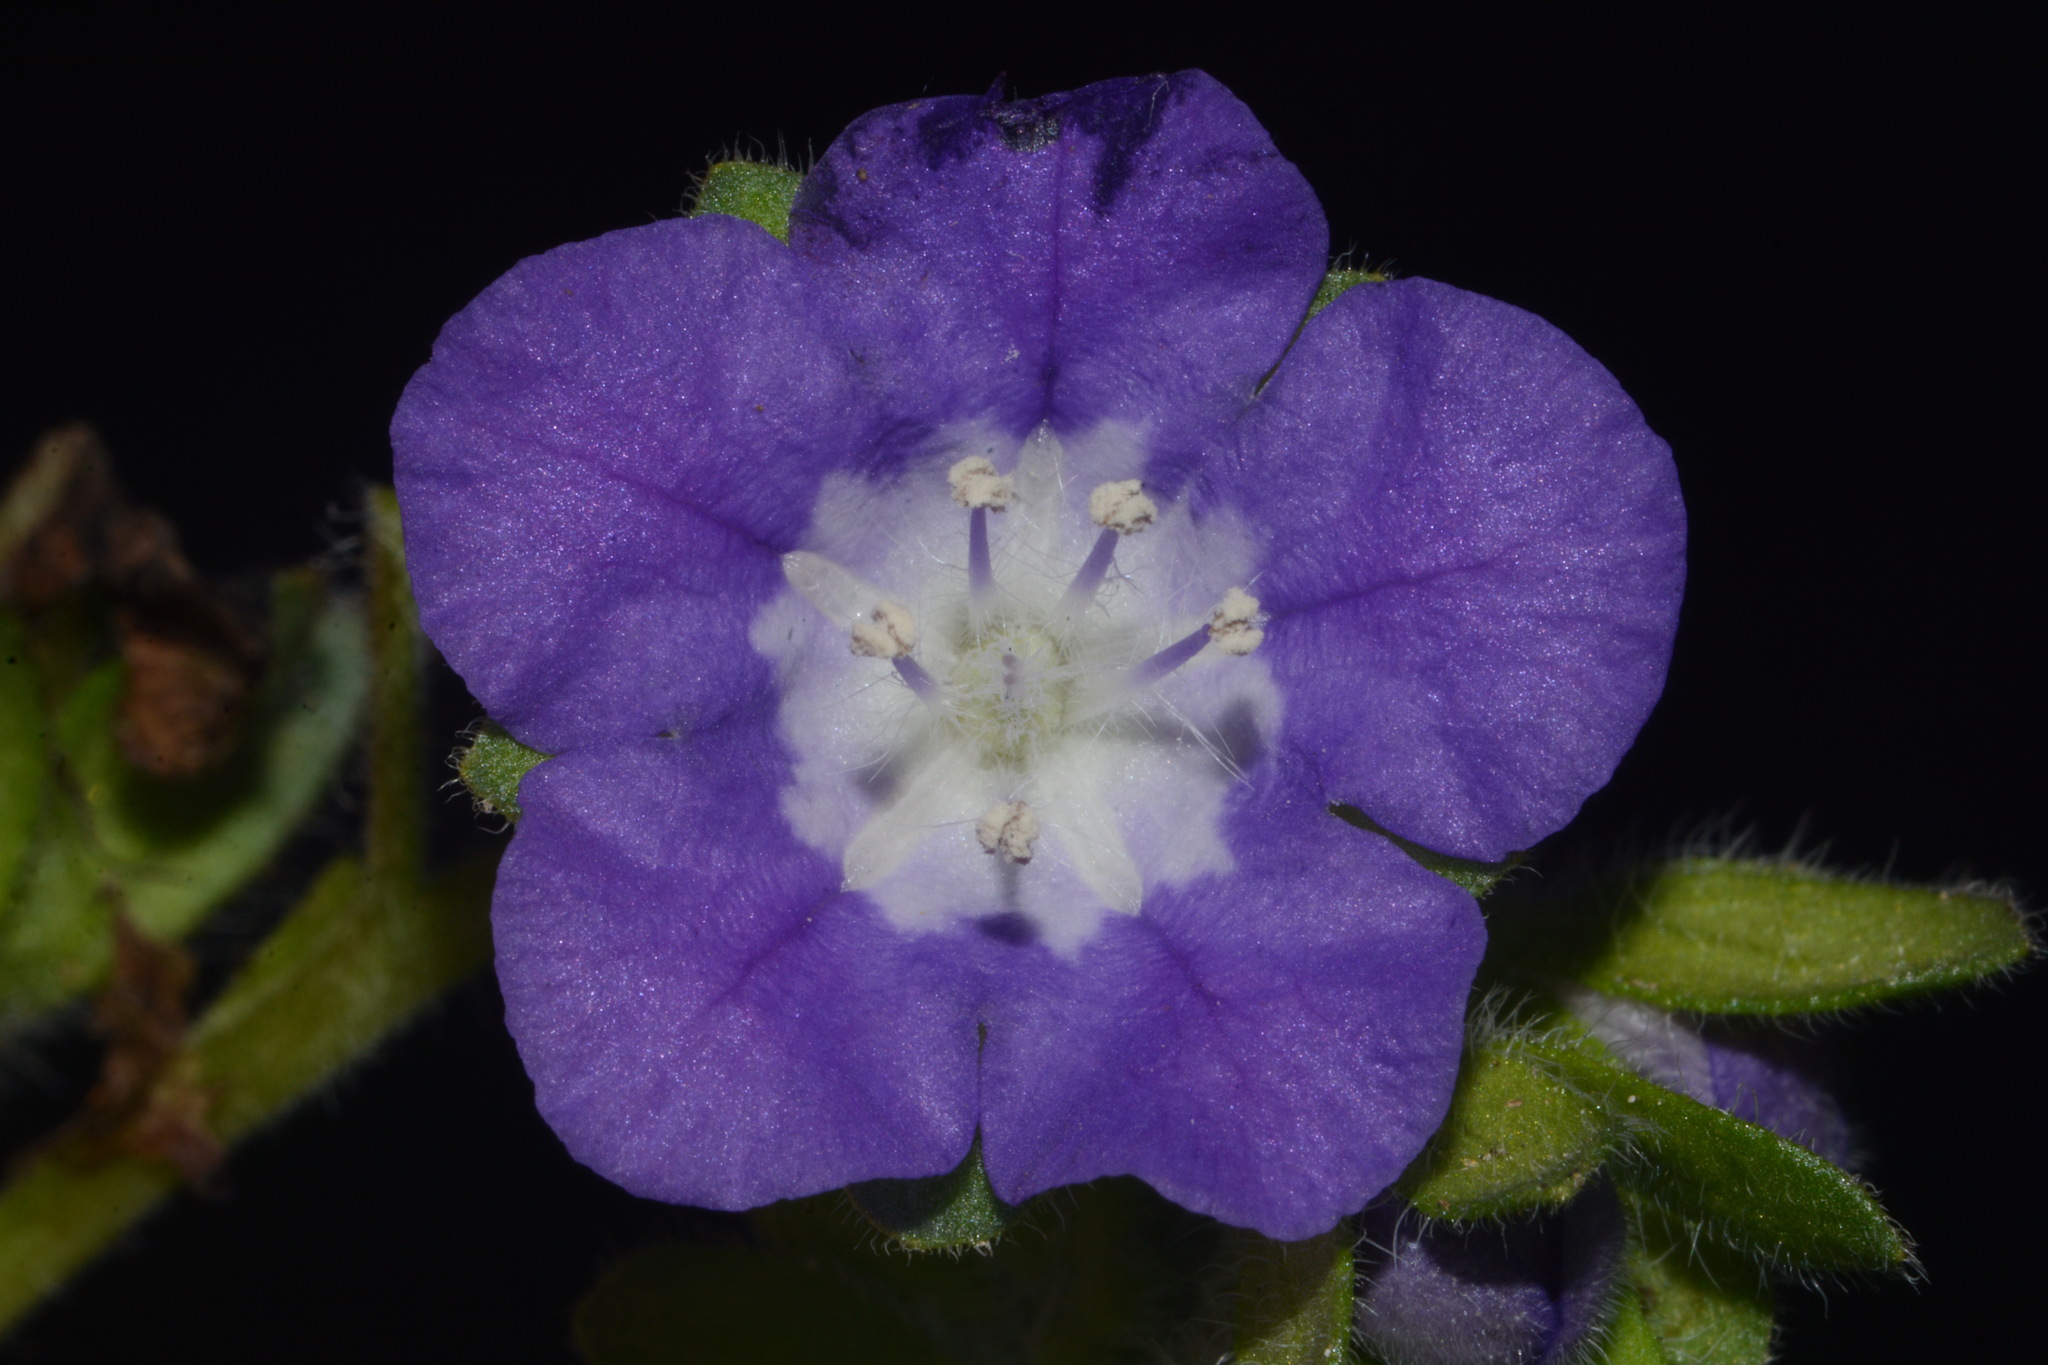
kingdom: Plantae
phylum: Tracheophyta
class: Magnoliopsida
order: Boraginales
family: Hydrophyllaceae
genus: Phacelia
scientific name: Phacelia austrotexana
